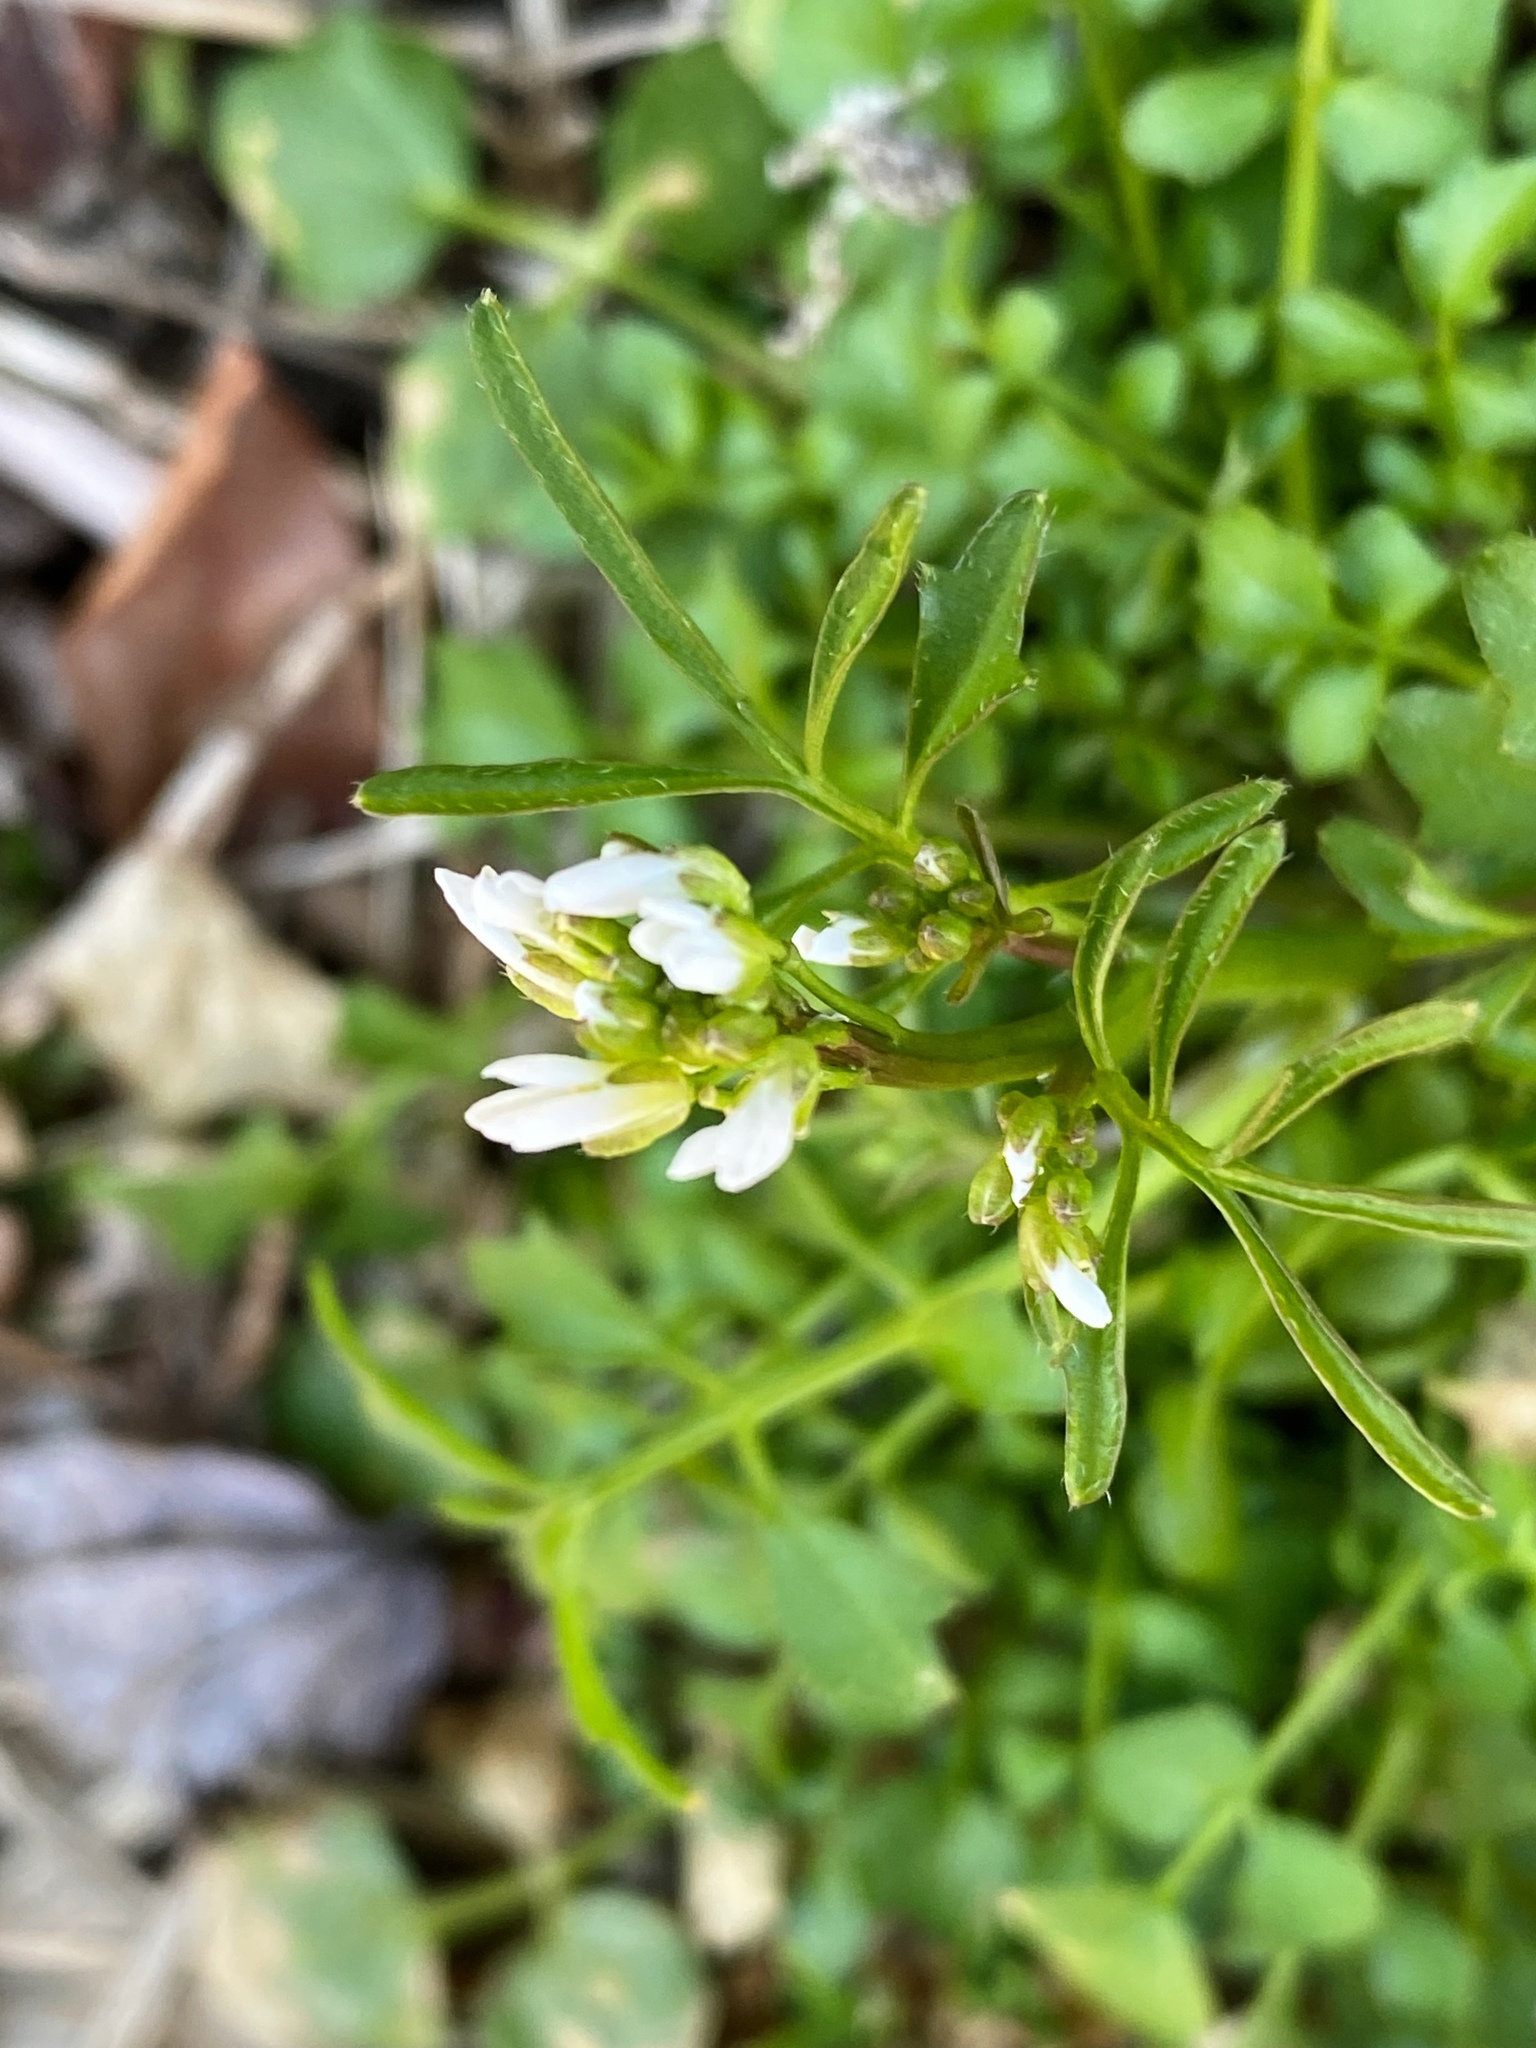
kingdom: Plantae
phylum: Tracheophyta
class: Magnoliopsida
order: Brassicales
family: Brassicaceae
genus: Cardamine
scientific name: Cardamine hirsuta
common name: Hairy bittercress
